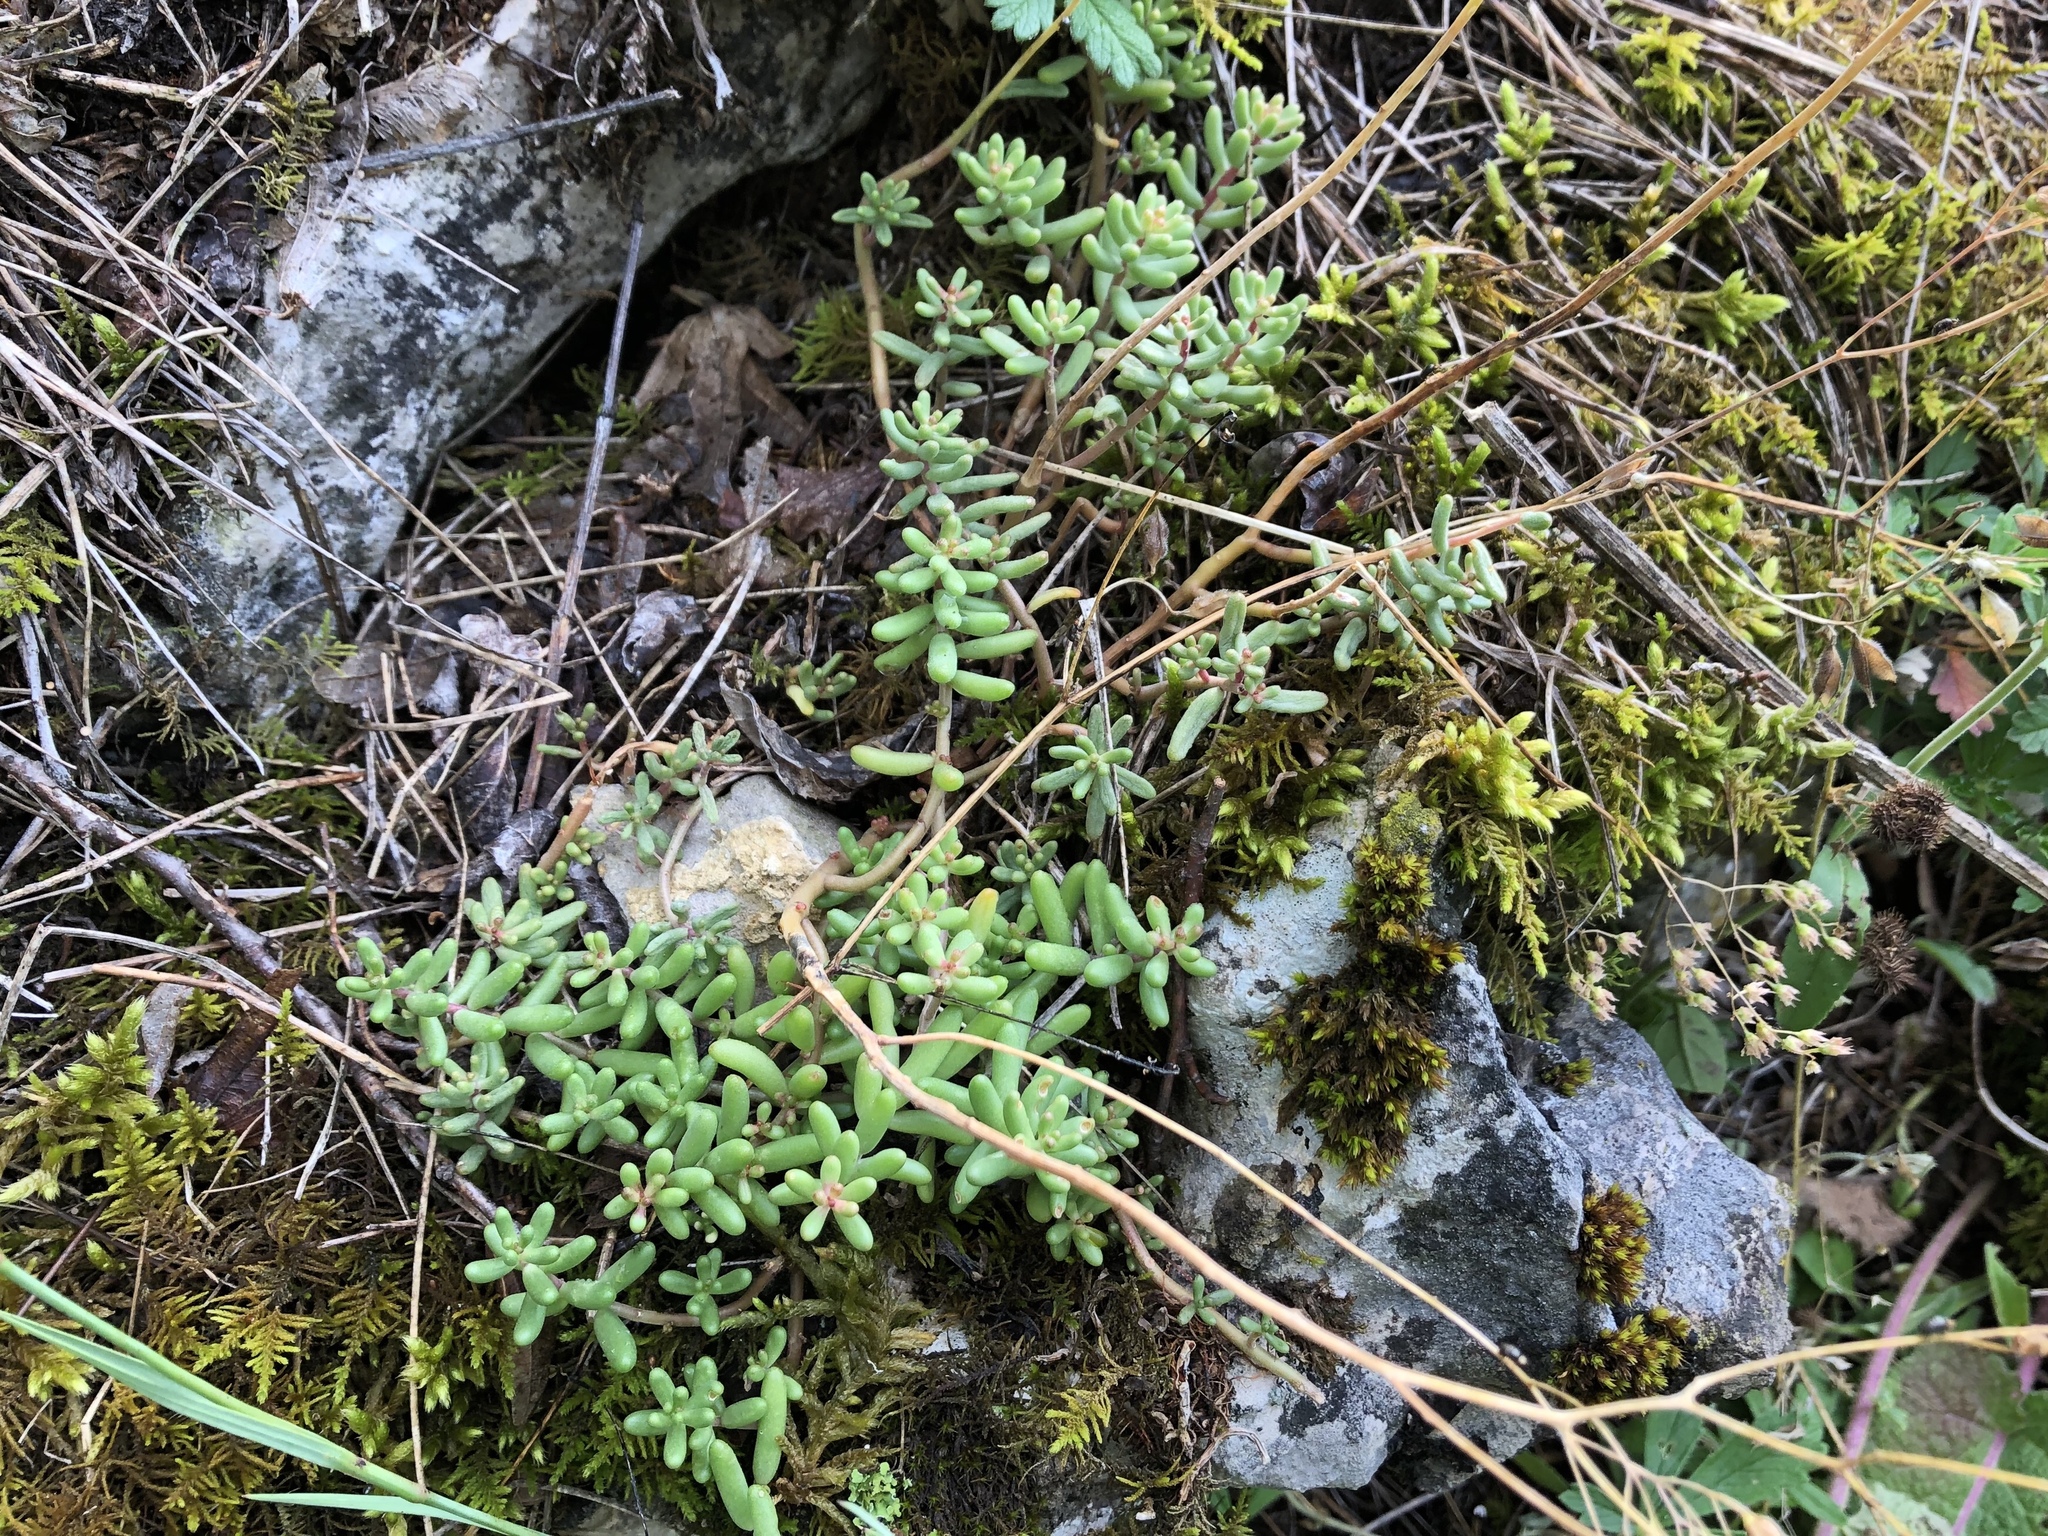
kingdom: Plantae
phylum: Tracheophyta
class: Magnoliopsida
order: Saxifragales
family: Crassulaceae
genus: Sedum
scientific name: Sedum album
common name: White stonecrop
